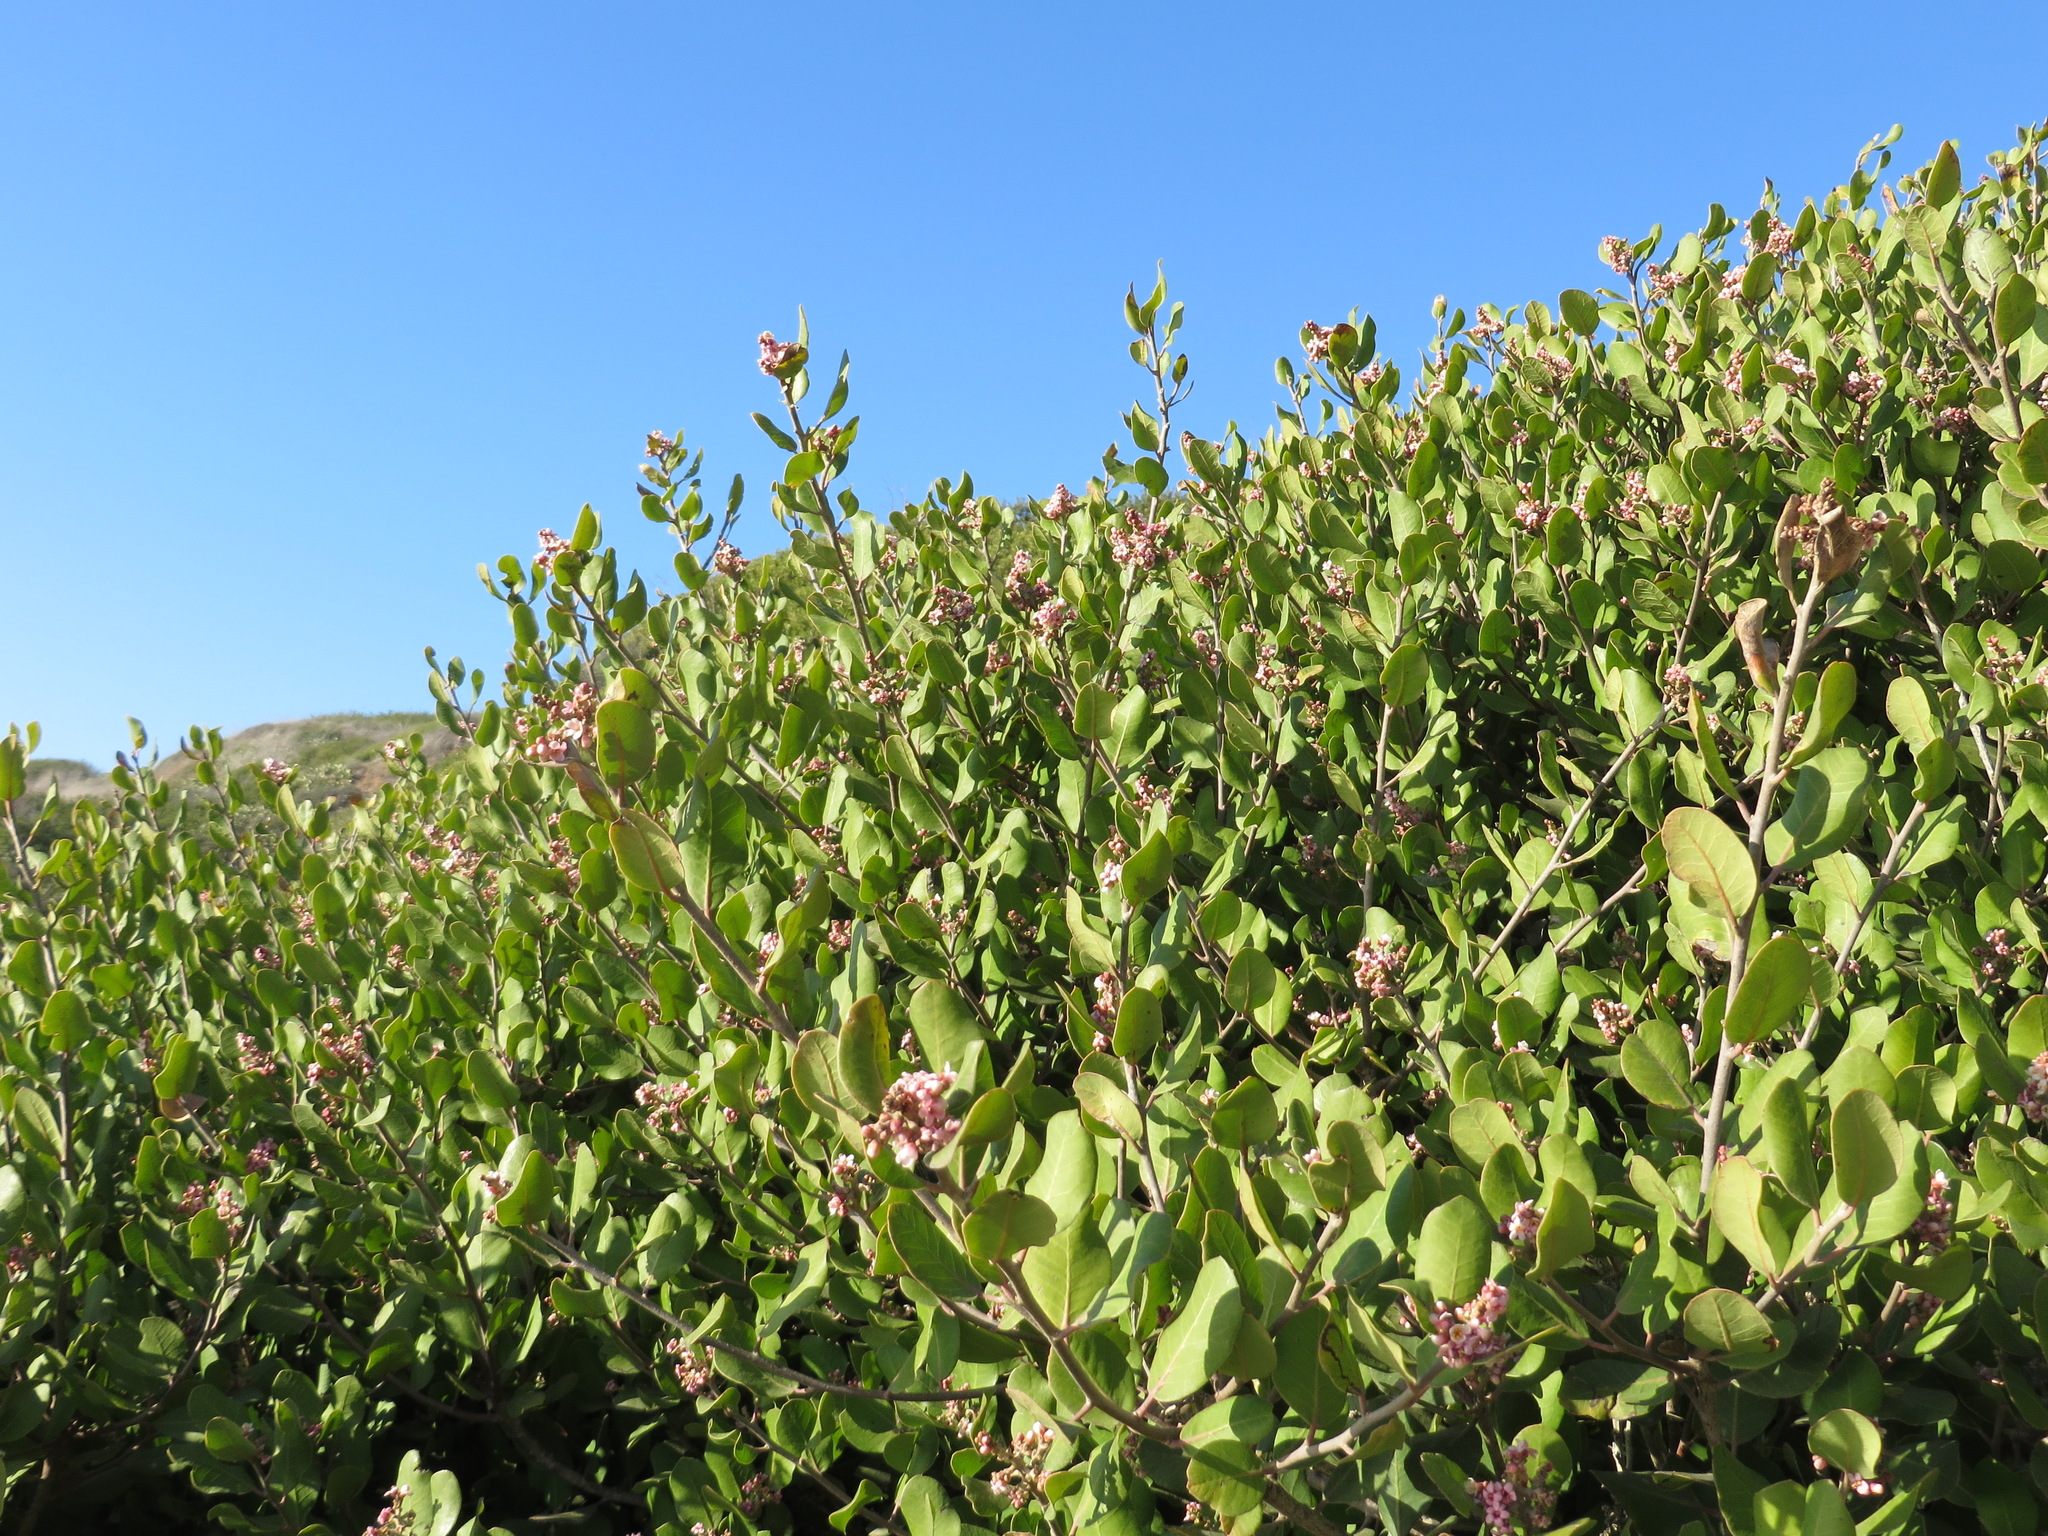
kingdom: Plantae
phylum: Tracheophyta
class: Magnoliopsida
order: Sapindales
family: Anacardiaceae
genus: Rhus
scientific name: Rhus integrifolia
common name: Lemonade sumac
